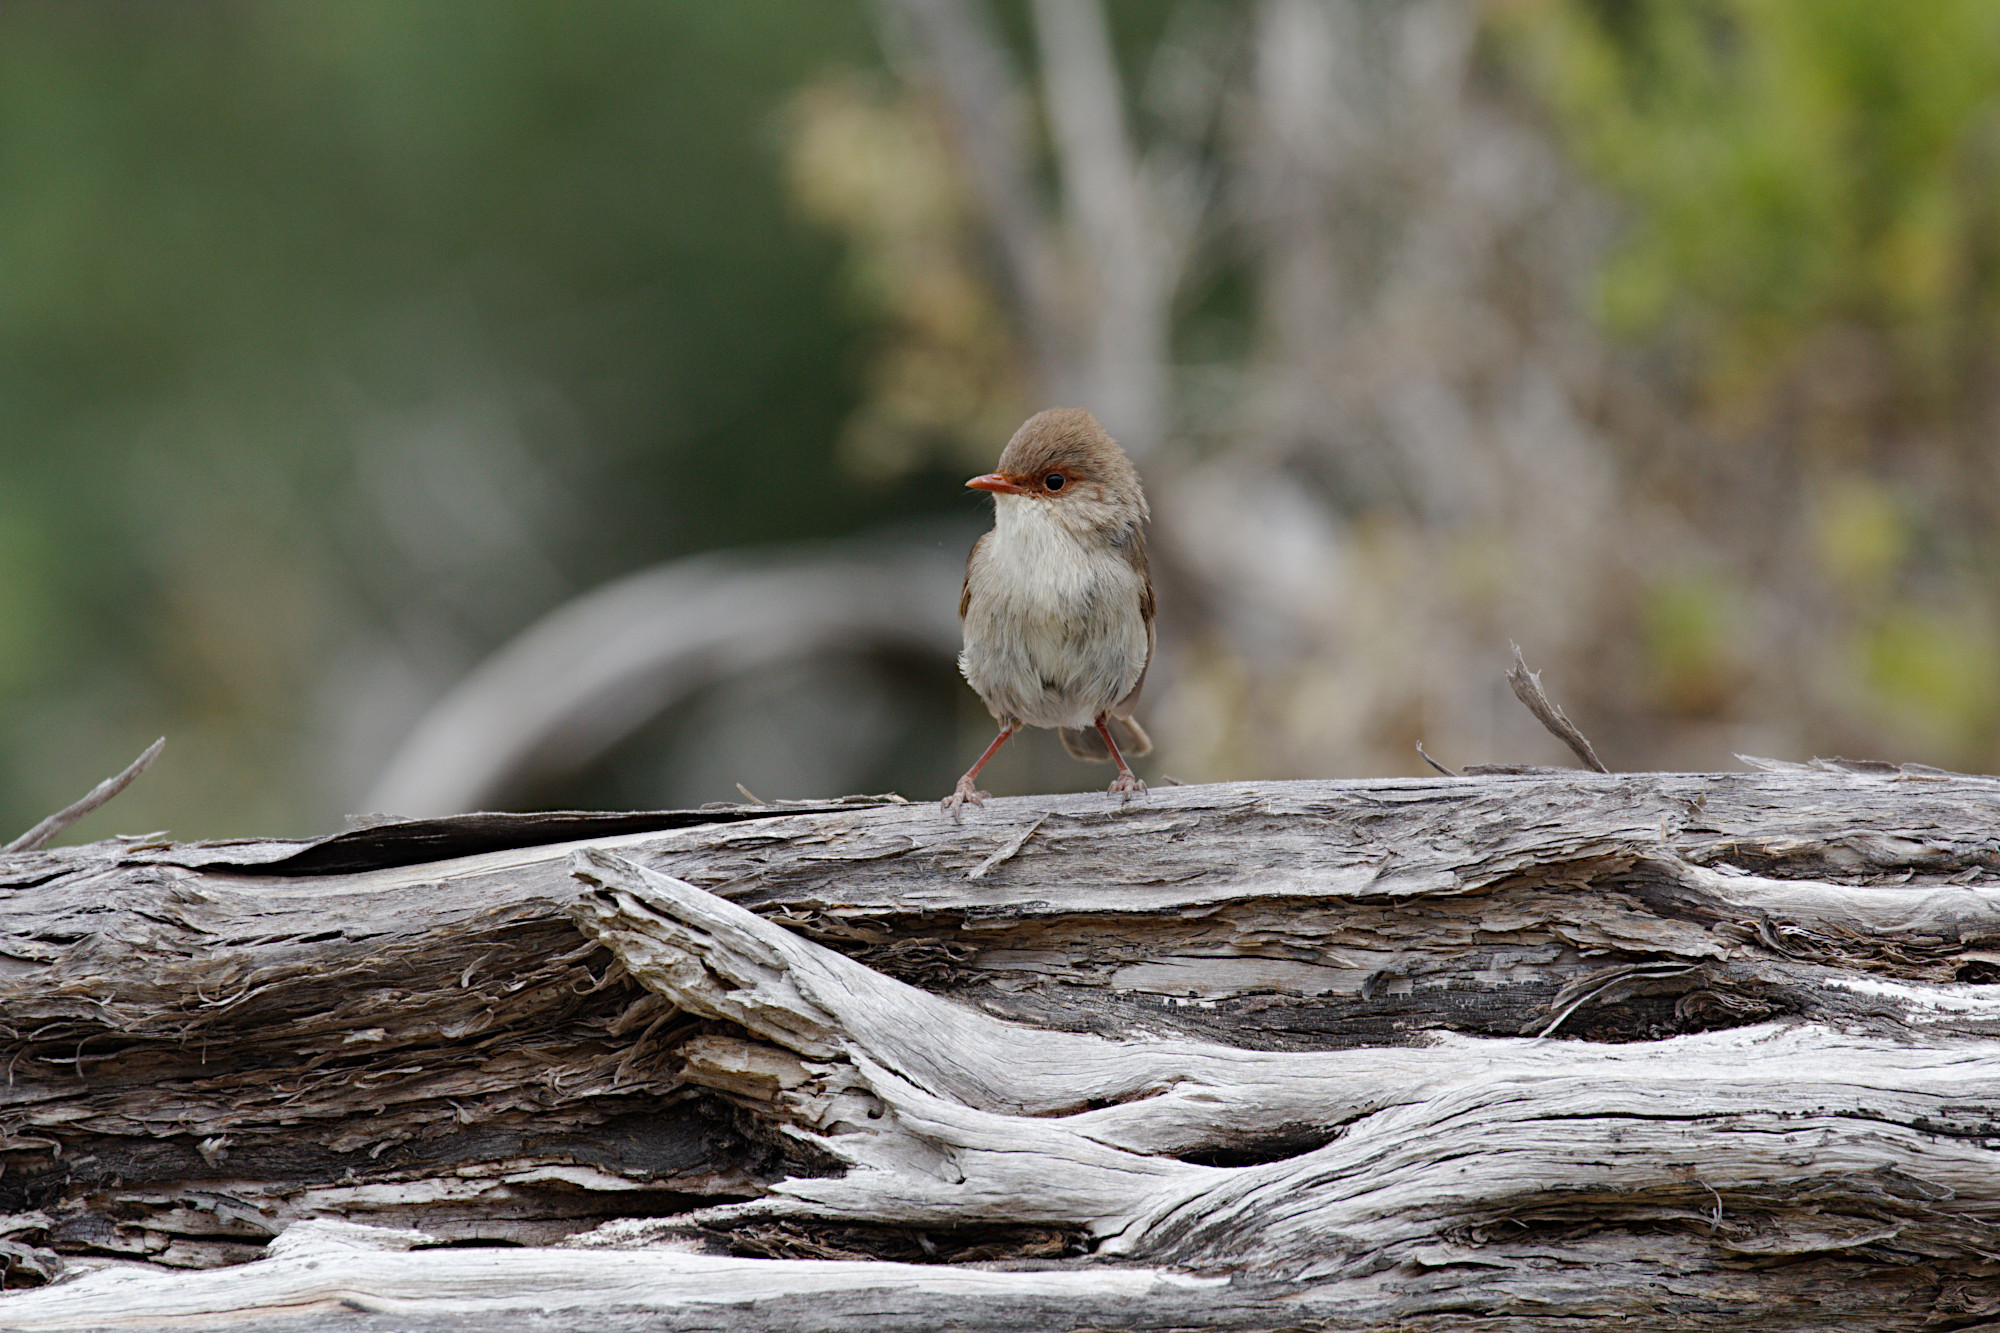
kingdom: Animalia
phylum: Chordata
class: Aves
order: Passeriformes
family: Maluridae
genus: Malurus
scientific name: Malurus cyaneus
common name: Superb fairywren
